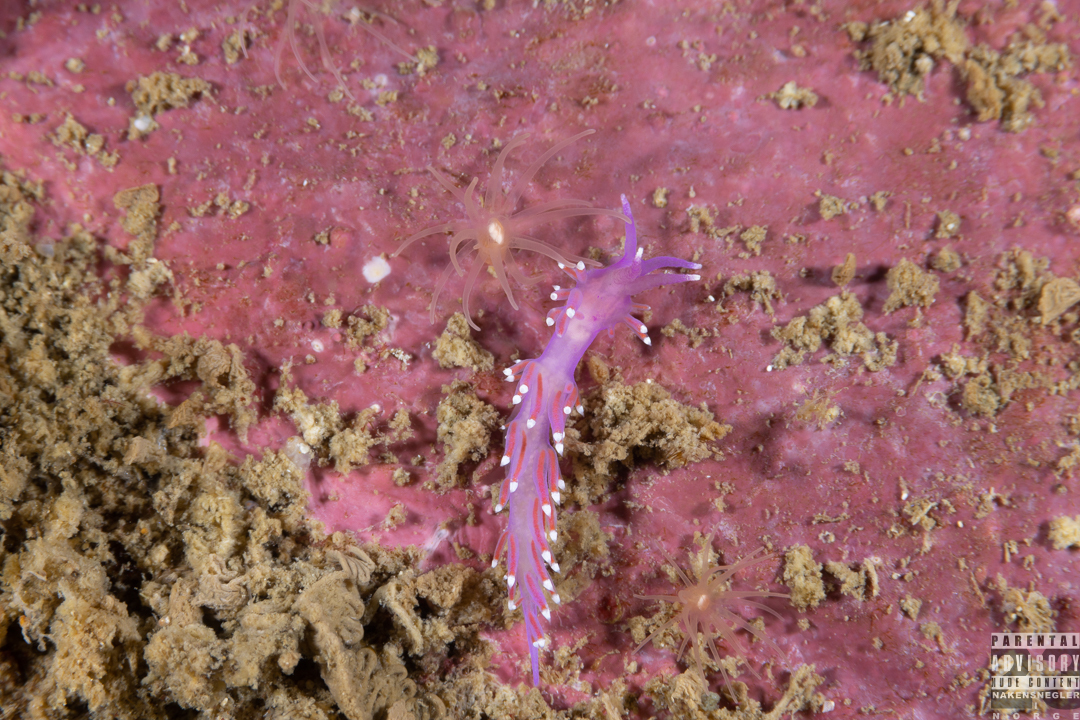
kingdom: Animalia
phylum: Mollusca
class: Gastropoda
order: Nudibranchia
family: Flabellinidae
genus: Edmundsella
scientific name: Edmundsella pedata
